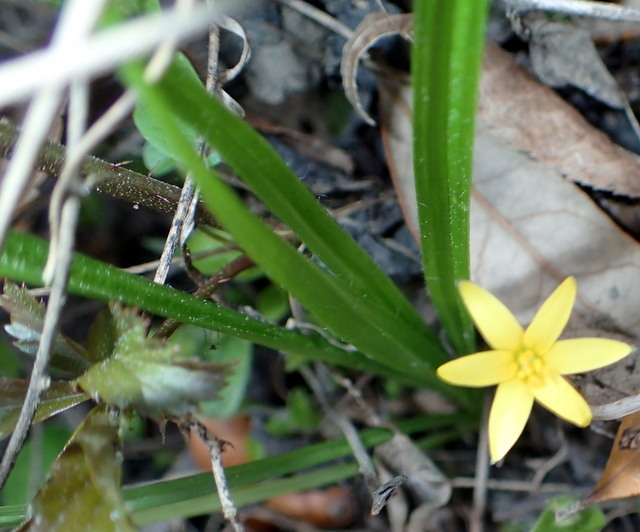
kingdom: Plantae
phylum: Tracheophyta
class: Liliopsida
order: Asparagales
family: Hypoxidaceae
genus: Hypoxis
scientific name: Hypoxis curtissii
